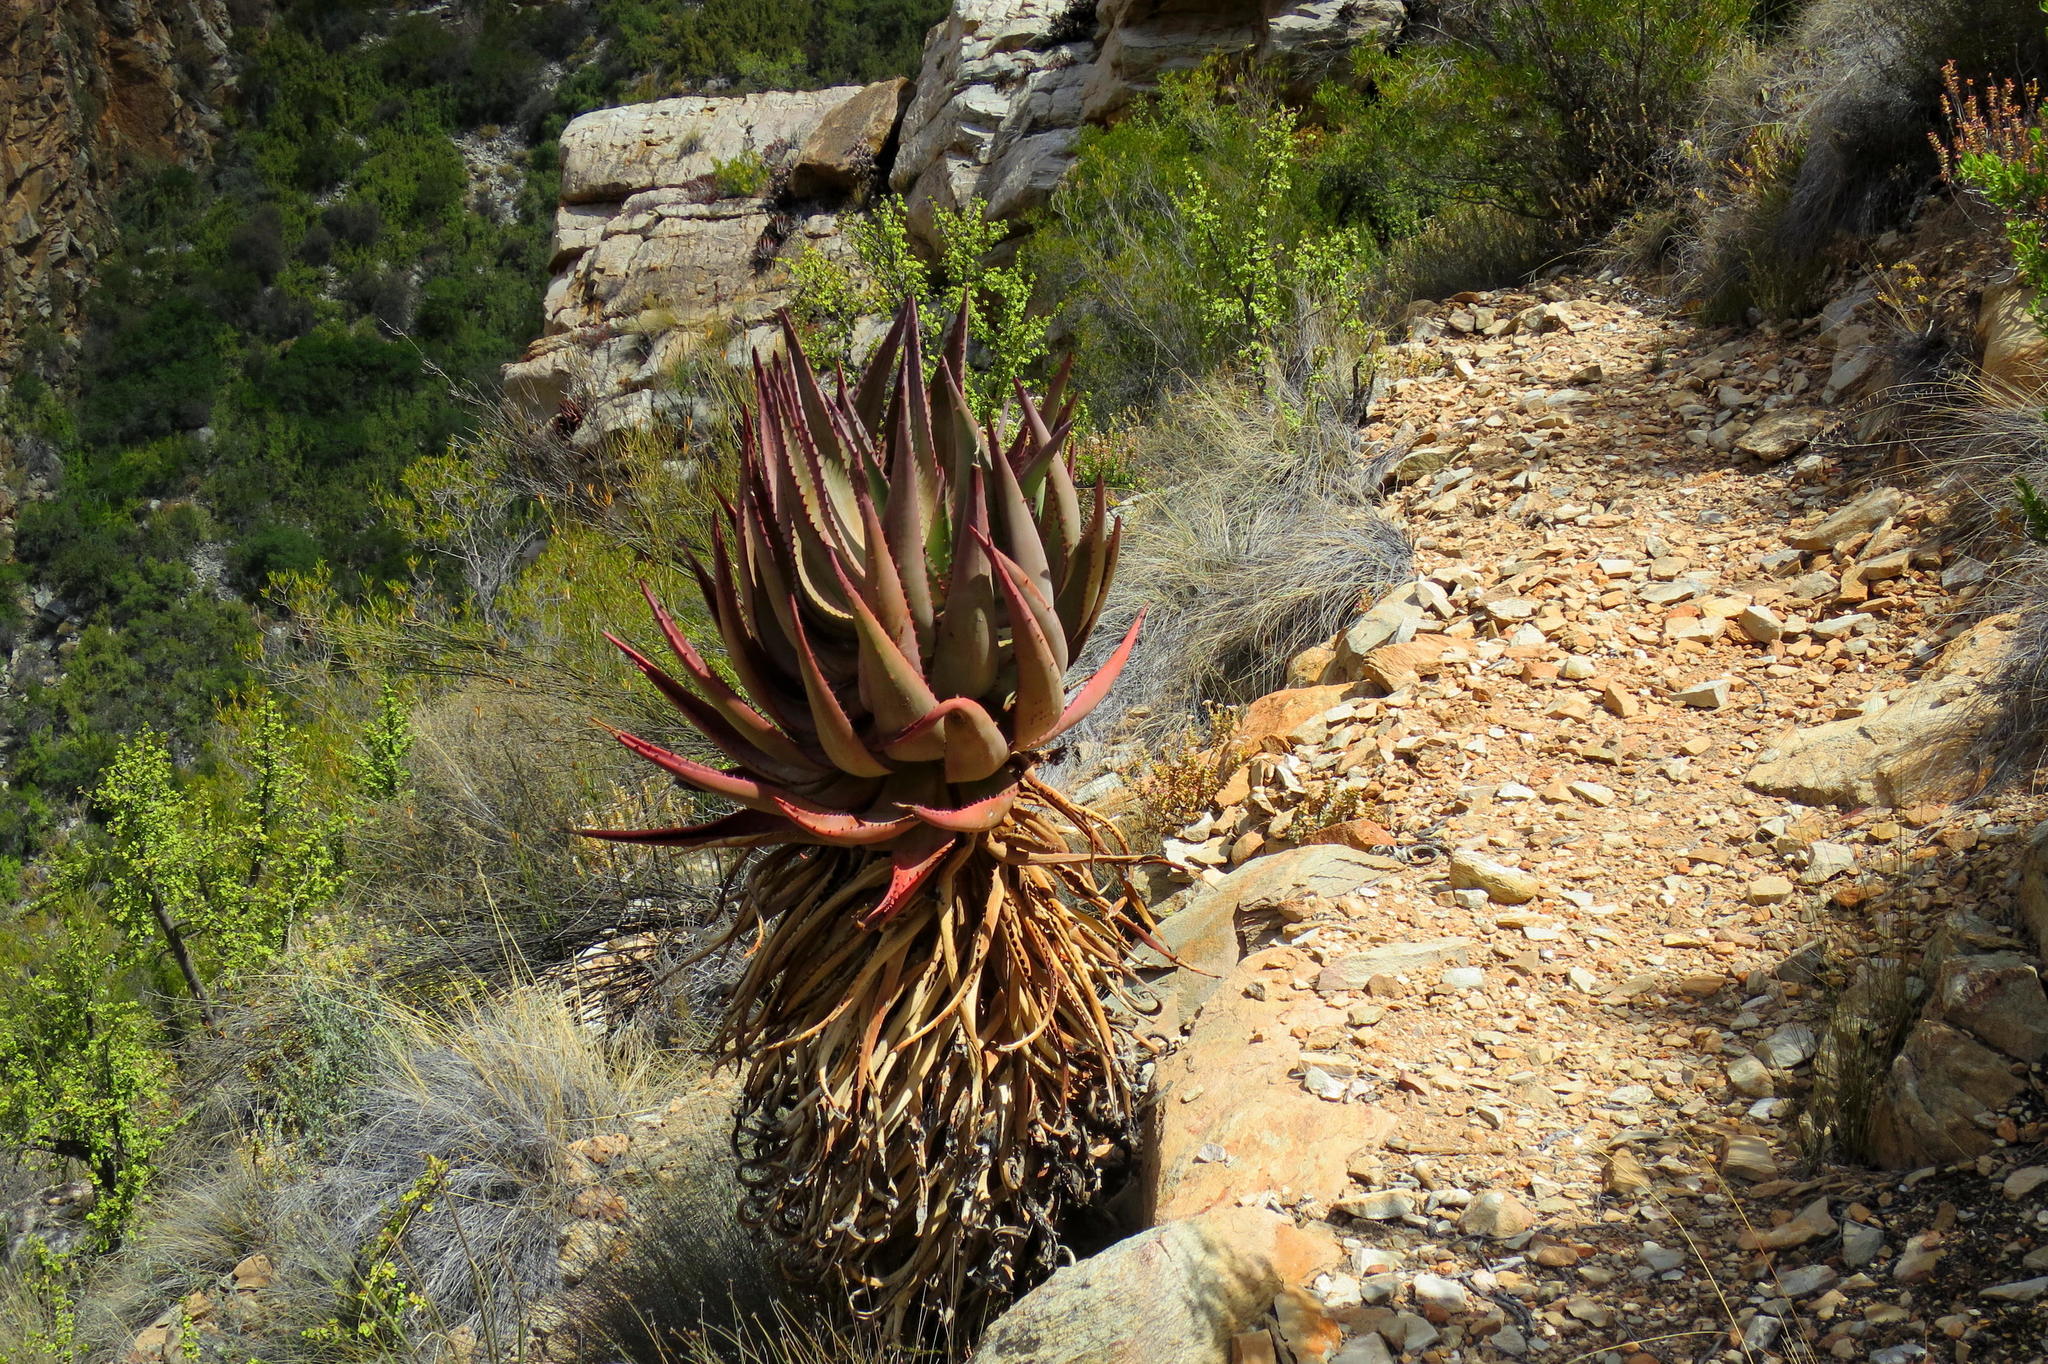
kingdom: Plantae
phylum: Tracheophyta
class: Liliopsida
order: Asparagales
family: Asphodelaceae
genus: Aloe
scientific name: Aloe ferox
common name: Bitter aloe
